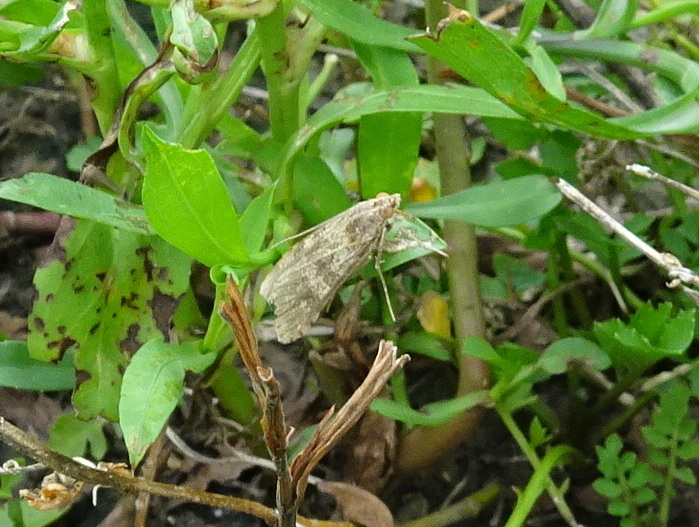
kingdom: Animalia
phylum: Arthropoda
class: Insecta
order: Lepidoptera
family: Crambidae
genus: Nomophila
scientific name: Nomophila nearctica
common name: American rush veneer
